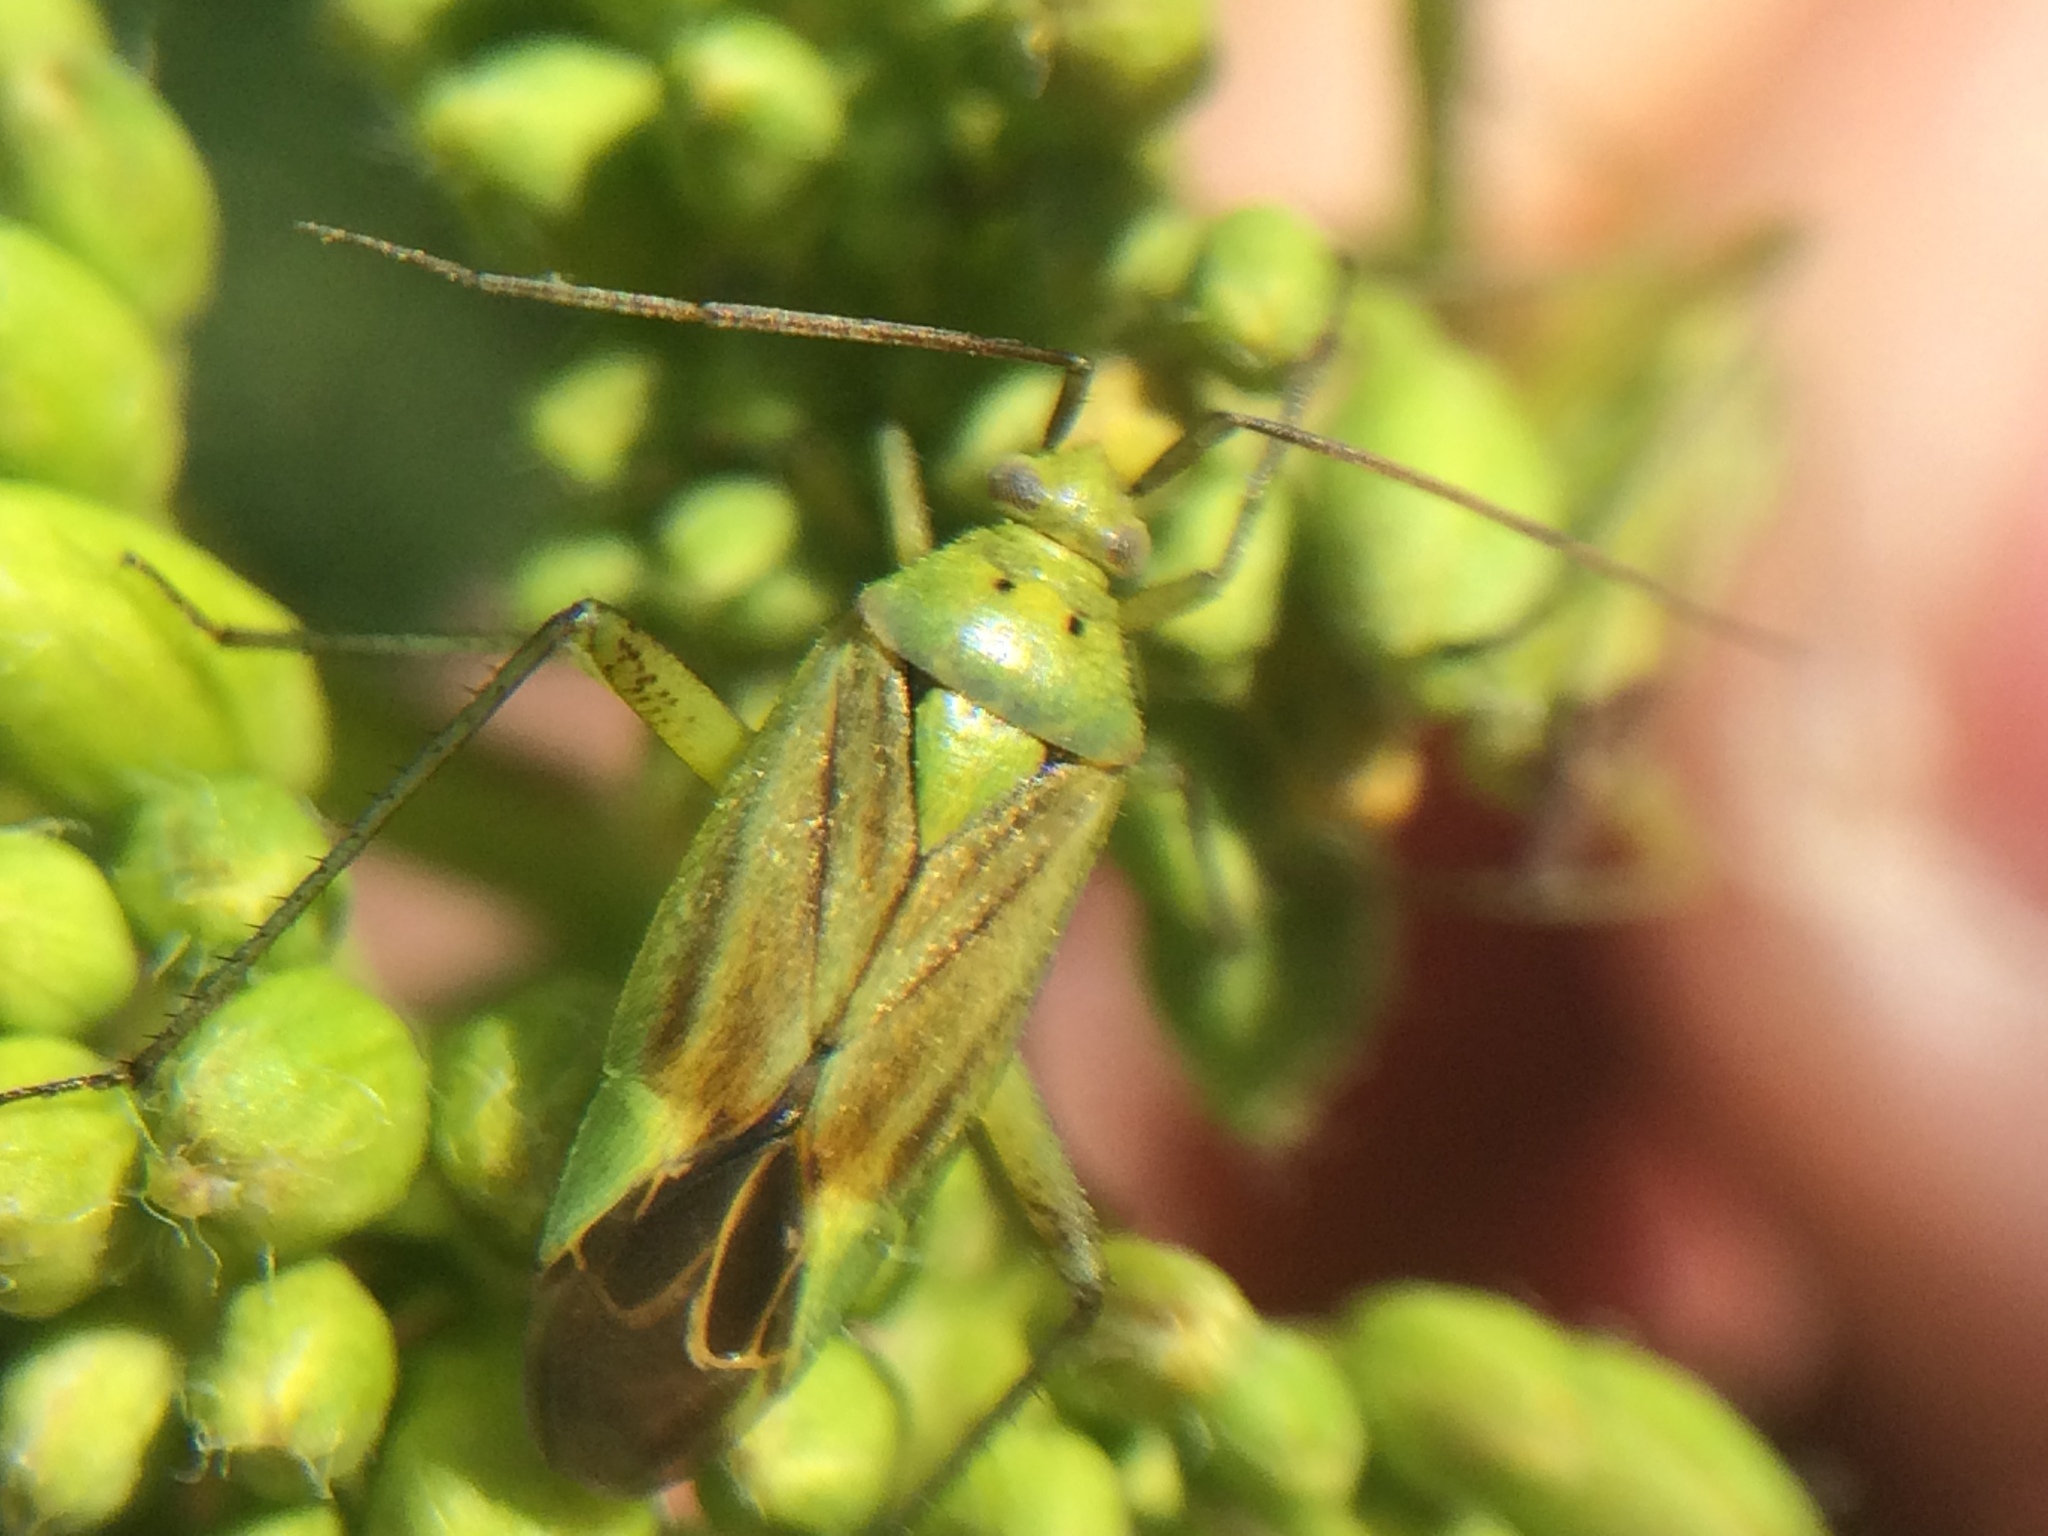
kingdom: Animalia
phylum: Arthropoda
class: Insecta
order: Hemiptera
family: Miridae
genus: Closterotomus
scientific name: Closterotomus norvegicus
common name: Plant bug
